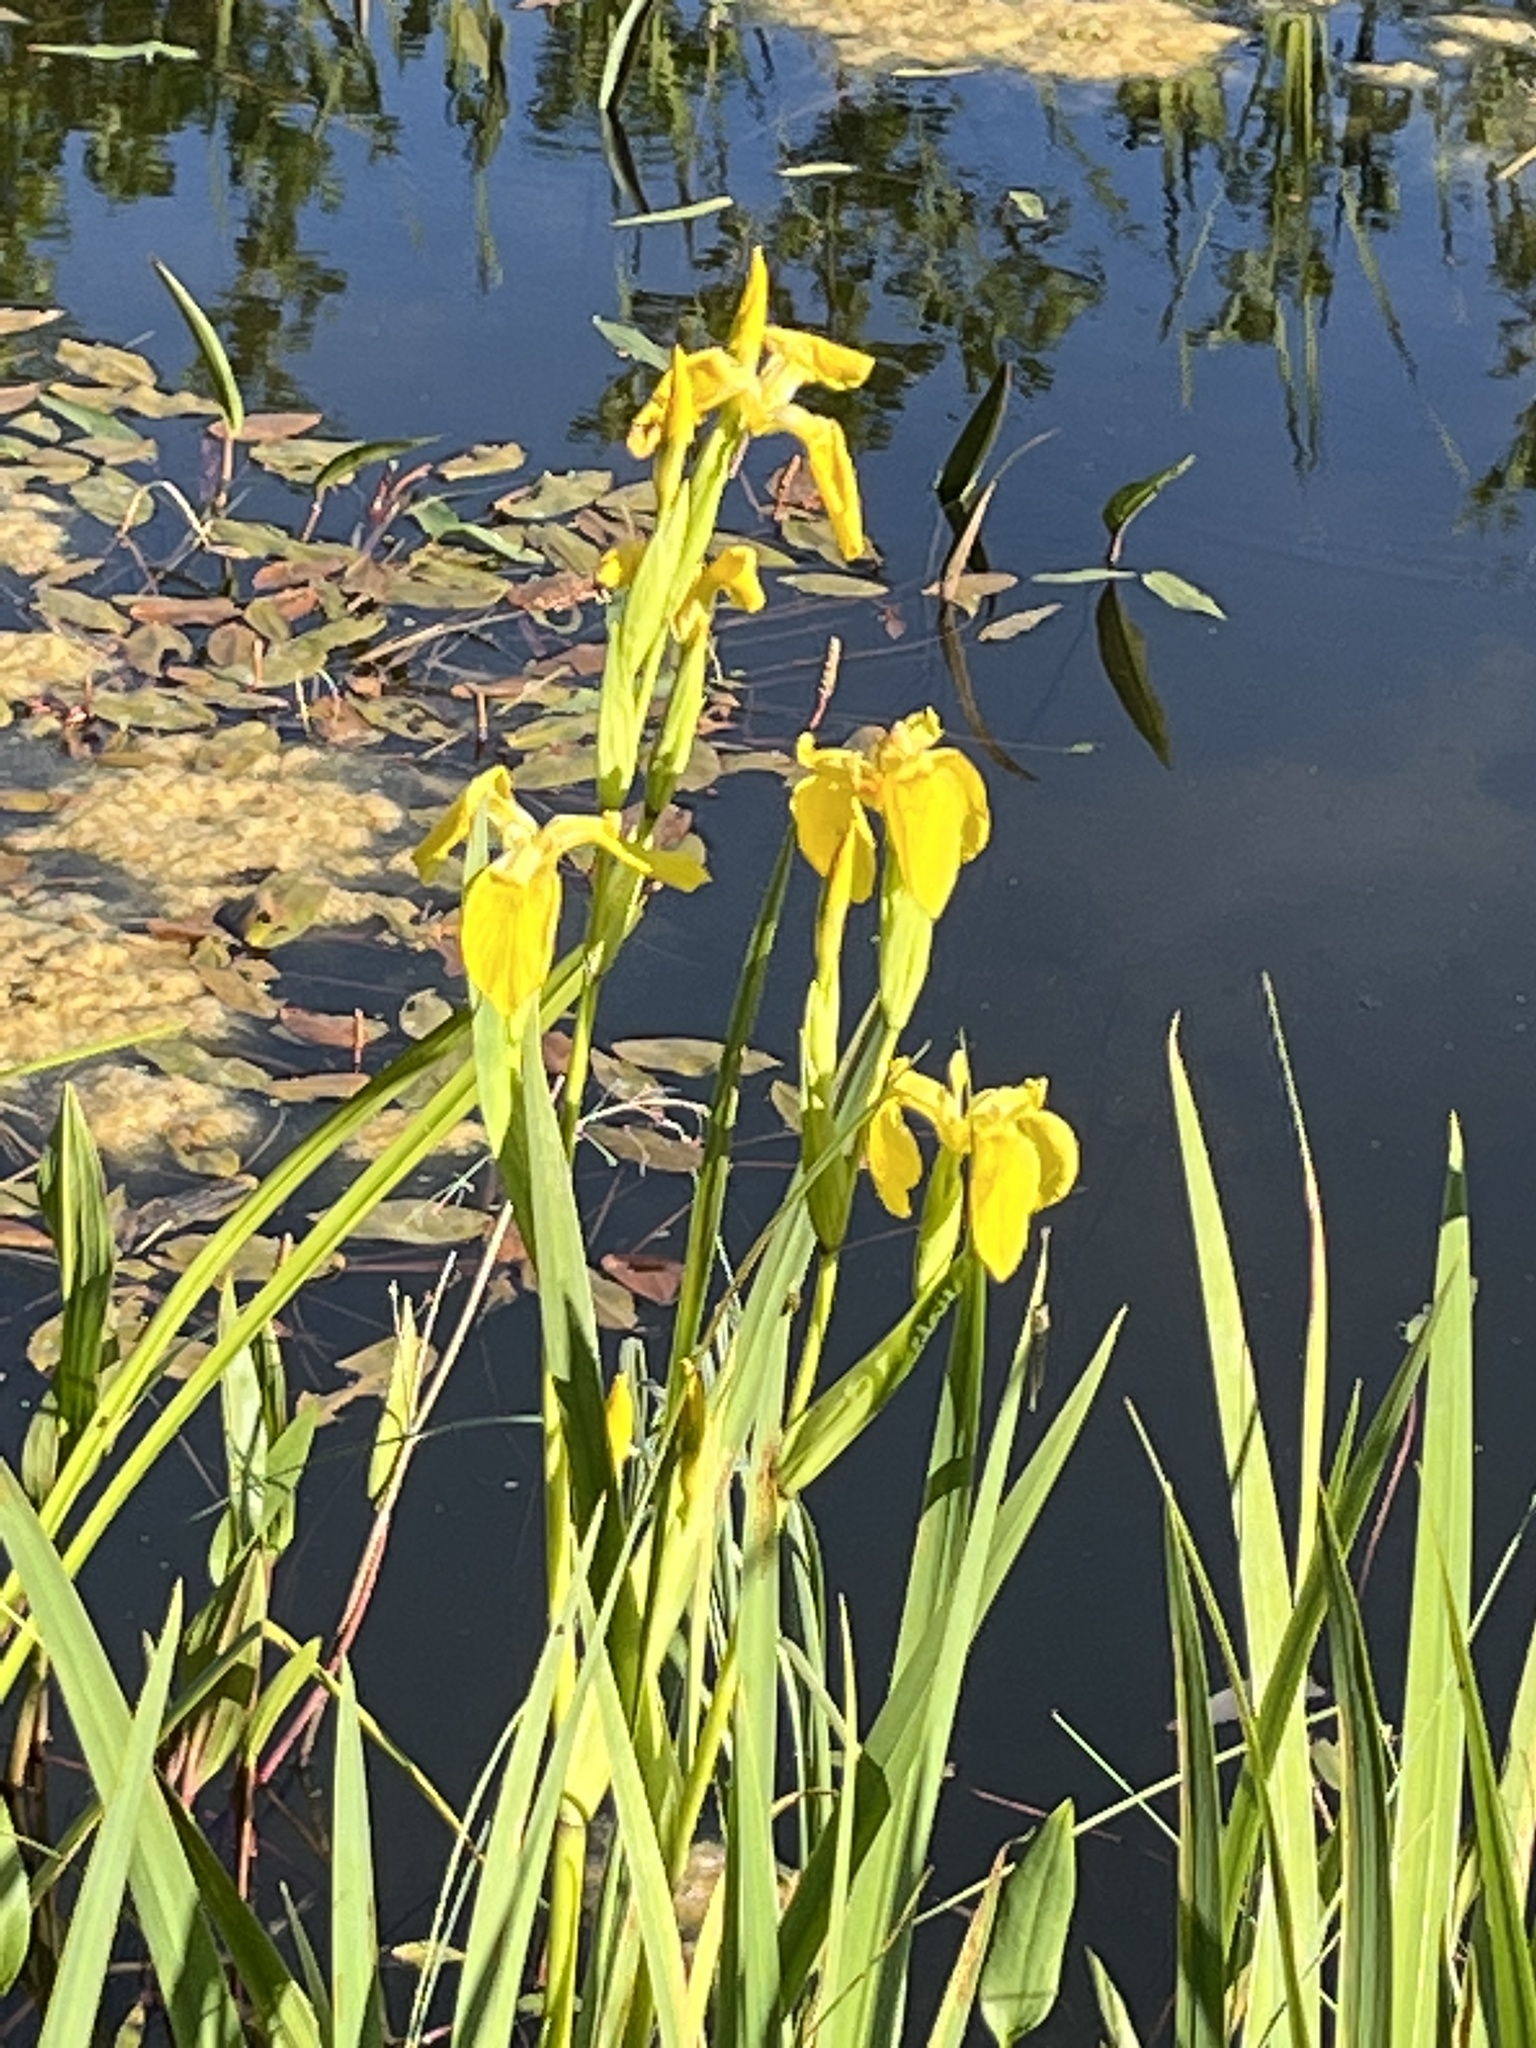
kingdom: Plantae
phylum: Tracheophyta
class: Liliopsida
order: Asparagales
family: Iridaceae
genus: Iris
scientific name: Iris pseudacorus
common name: Yellow flag
